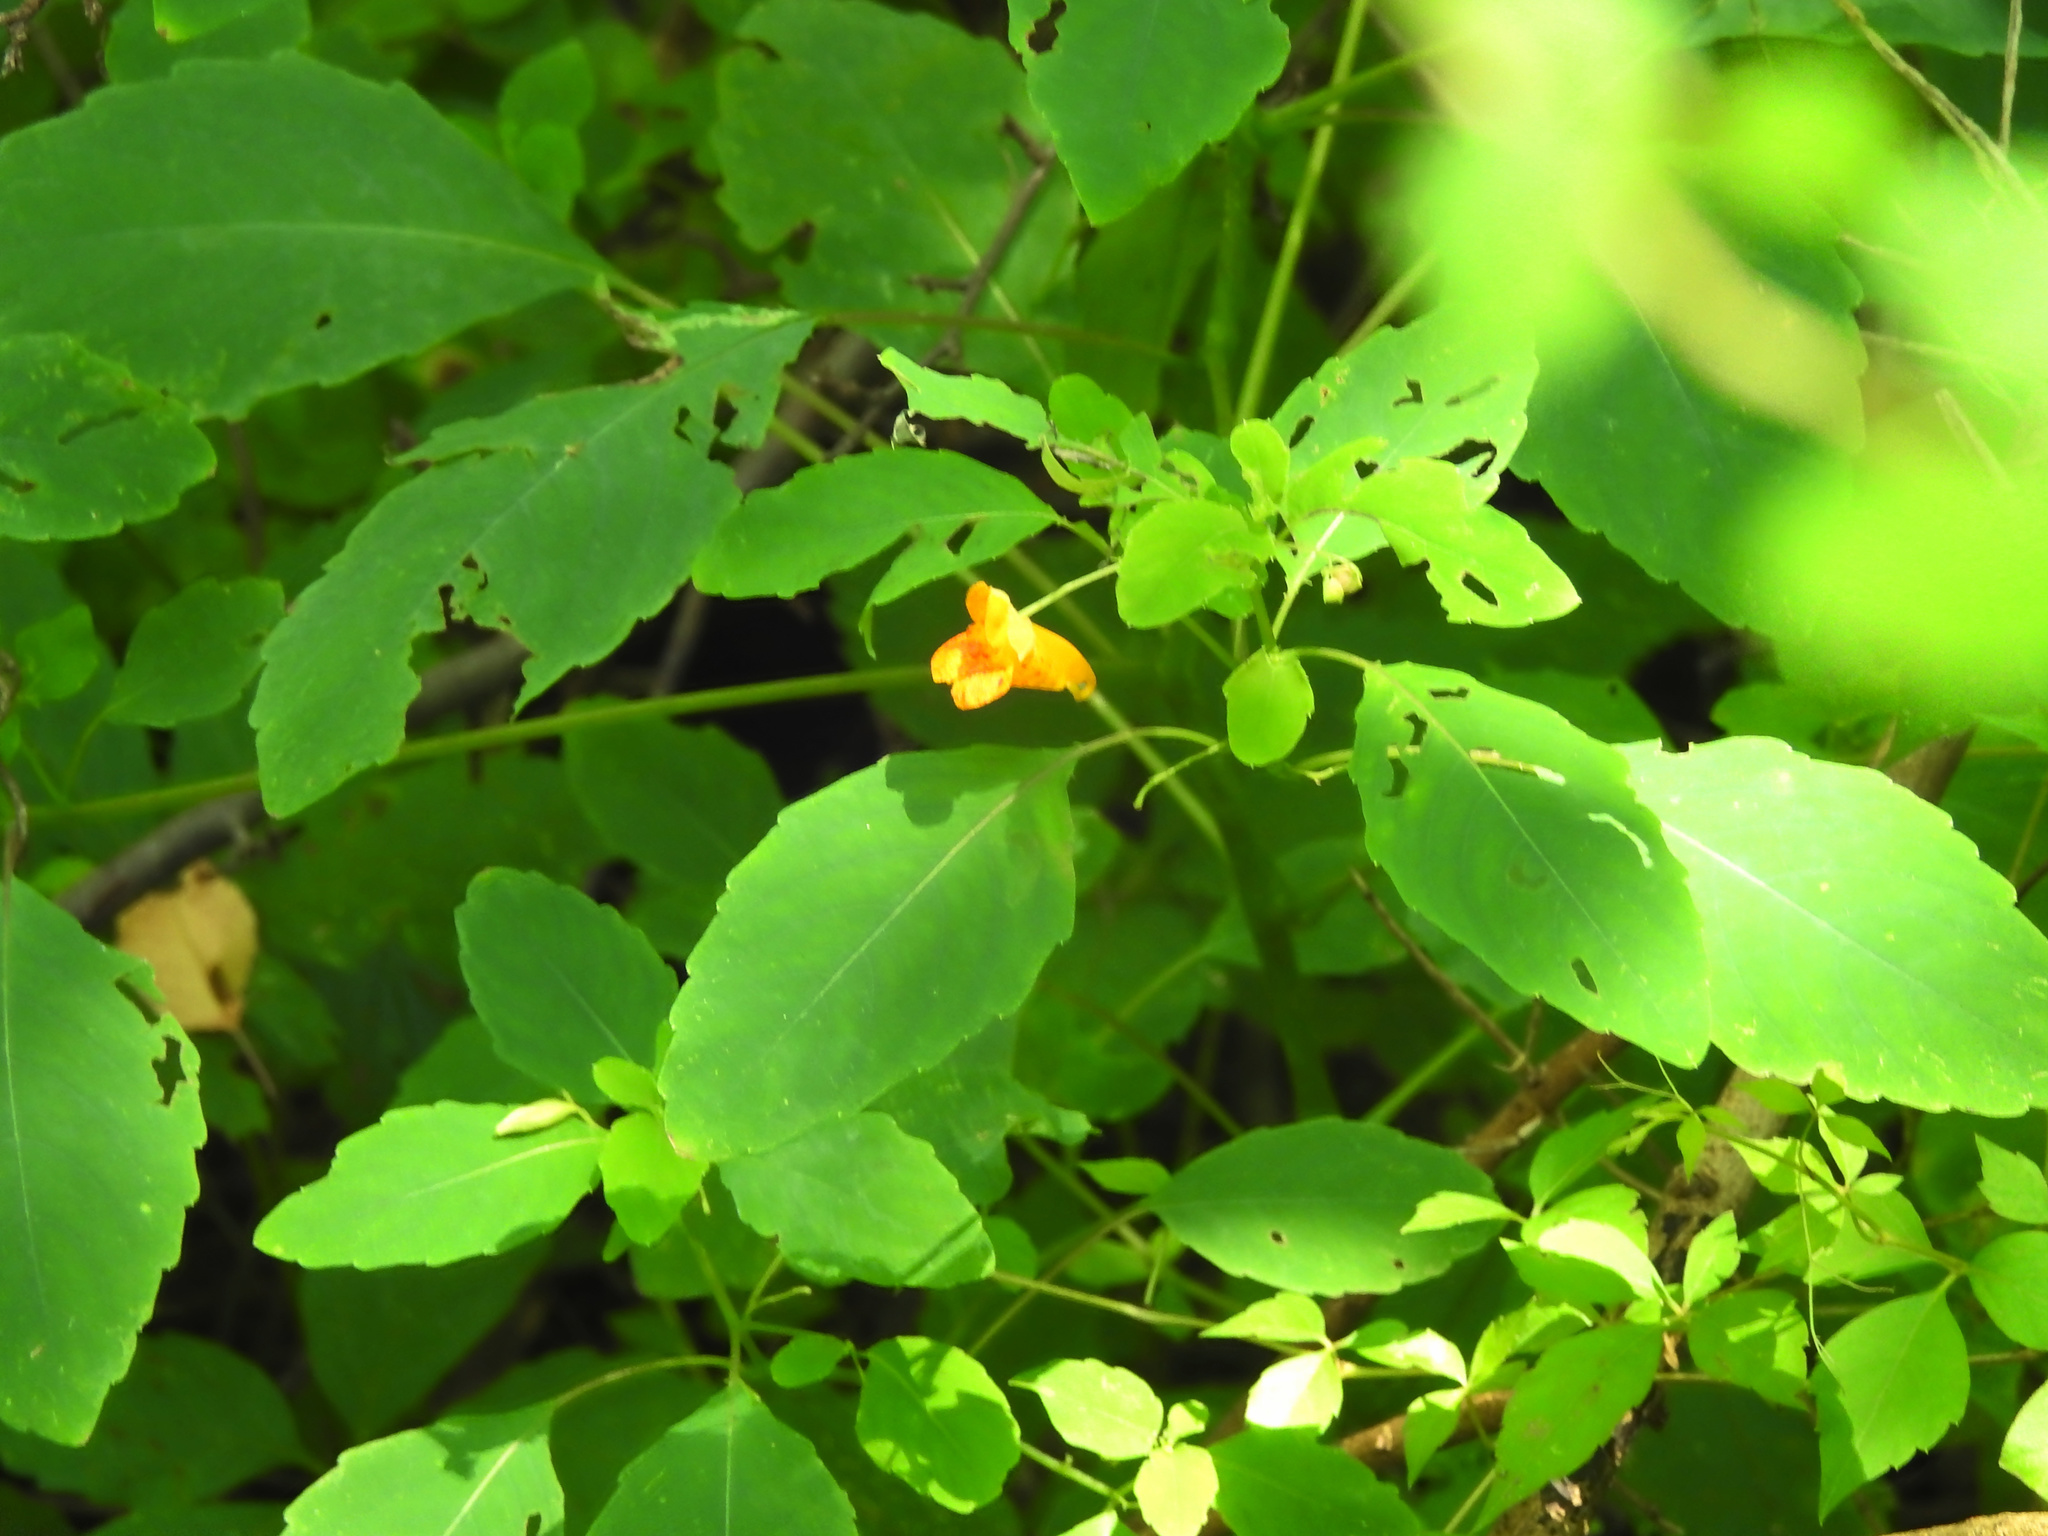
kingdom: Plantae
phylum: Tracheophyta
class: Magnoliopsida
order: Ericales
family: Balsaminaceae
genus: Impatiens
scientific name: Impatiens capensis
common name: Orange balsam
